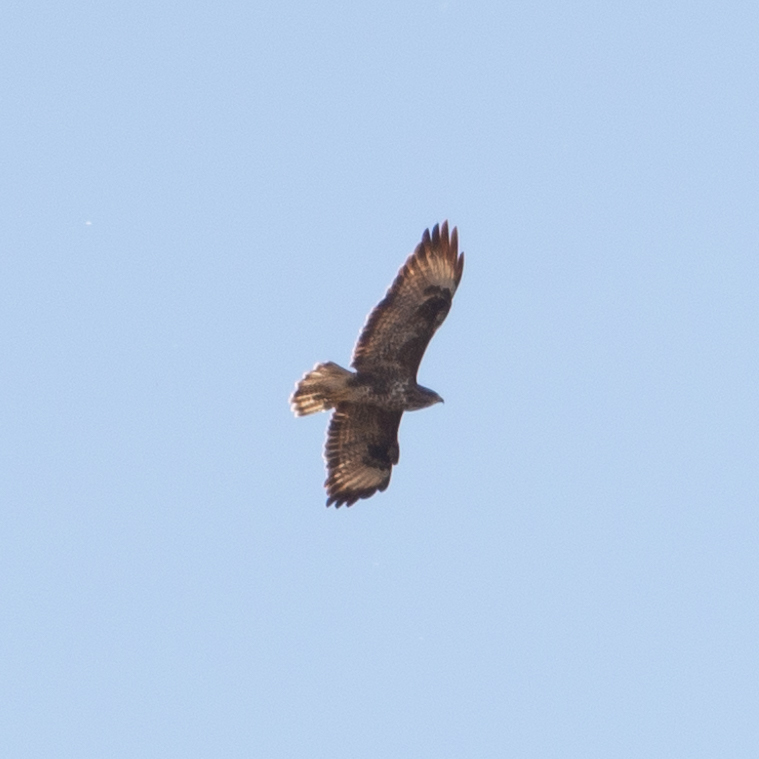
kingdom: Animalia
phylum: Chordata
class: Aves
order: Accipitriformes
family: Accipitridae
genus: Buteo
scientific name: Buteo buteo
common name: Common buzzard
